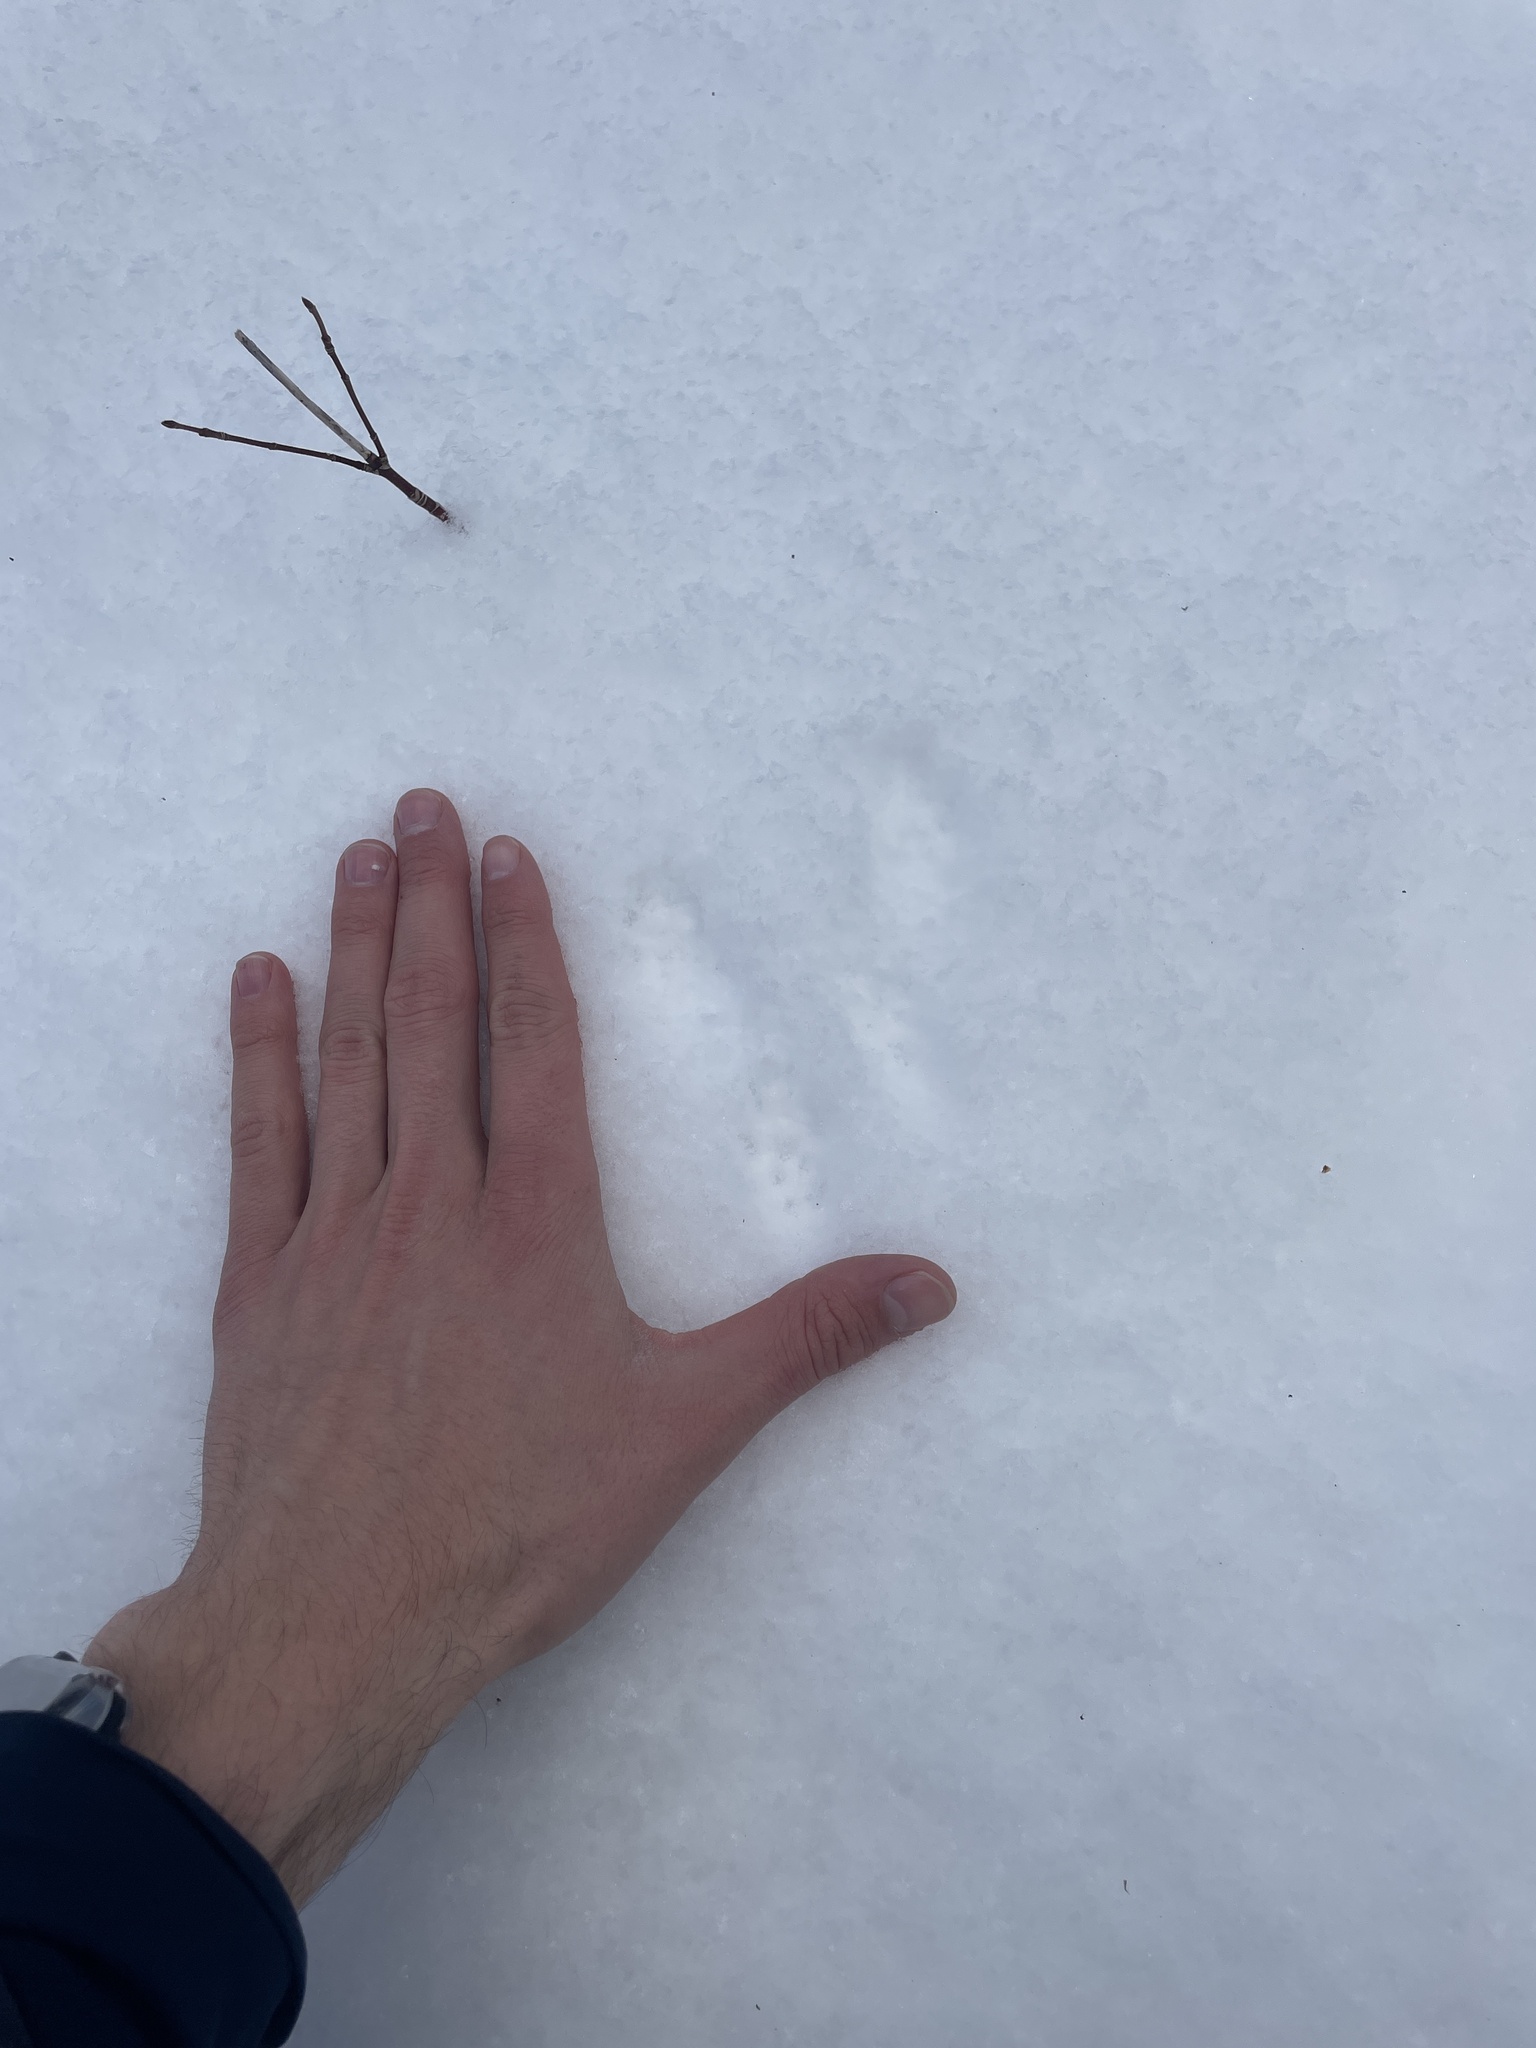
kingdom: Animalia
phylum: Chordata
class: Mammalia
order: Rodentia
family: Sciuridae
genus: Tamiasciurus
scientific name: Tamiasciurus hudsonicus
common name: Red squirrel
